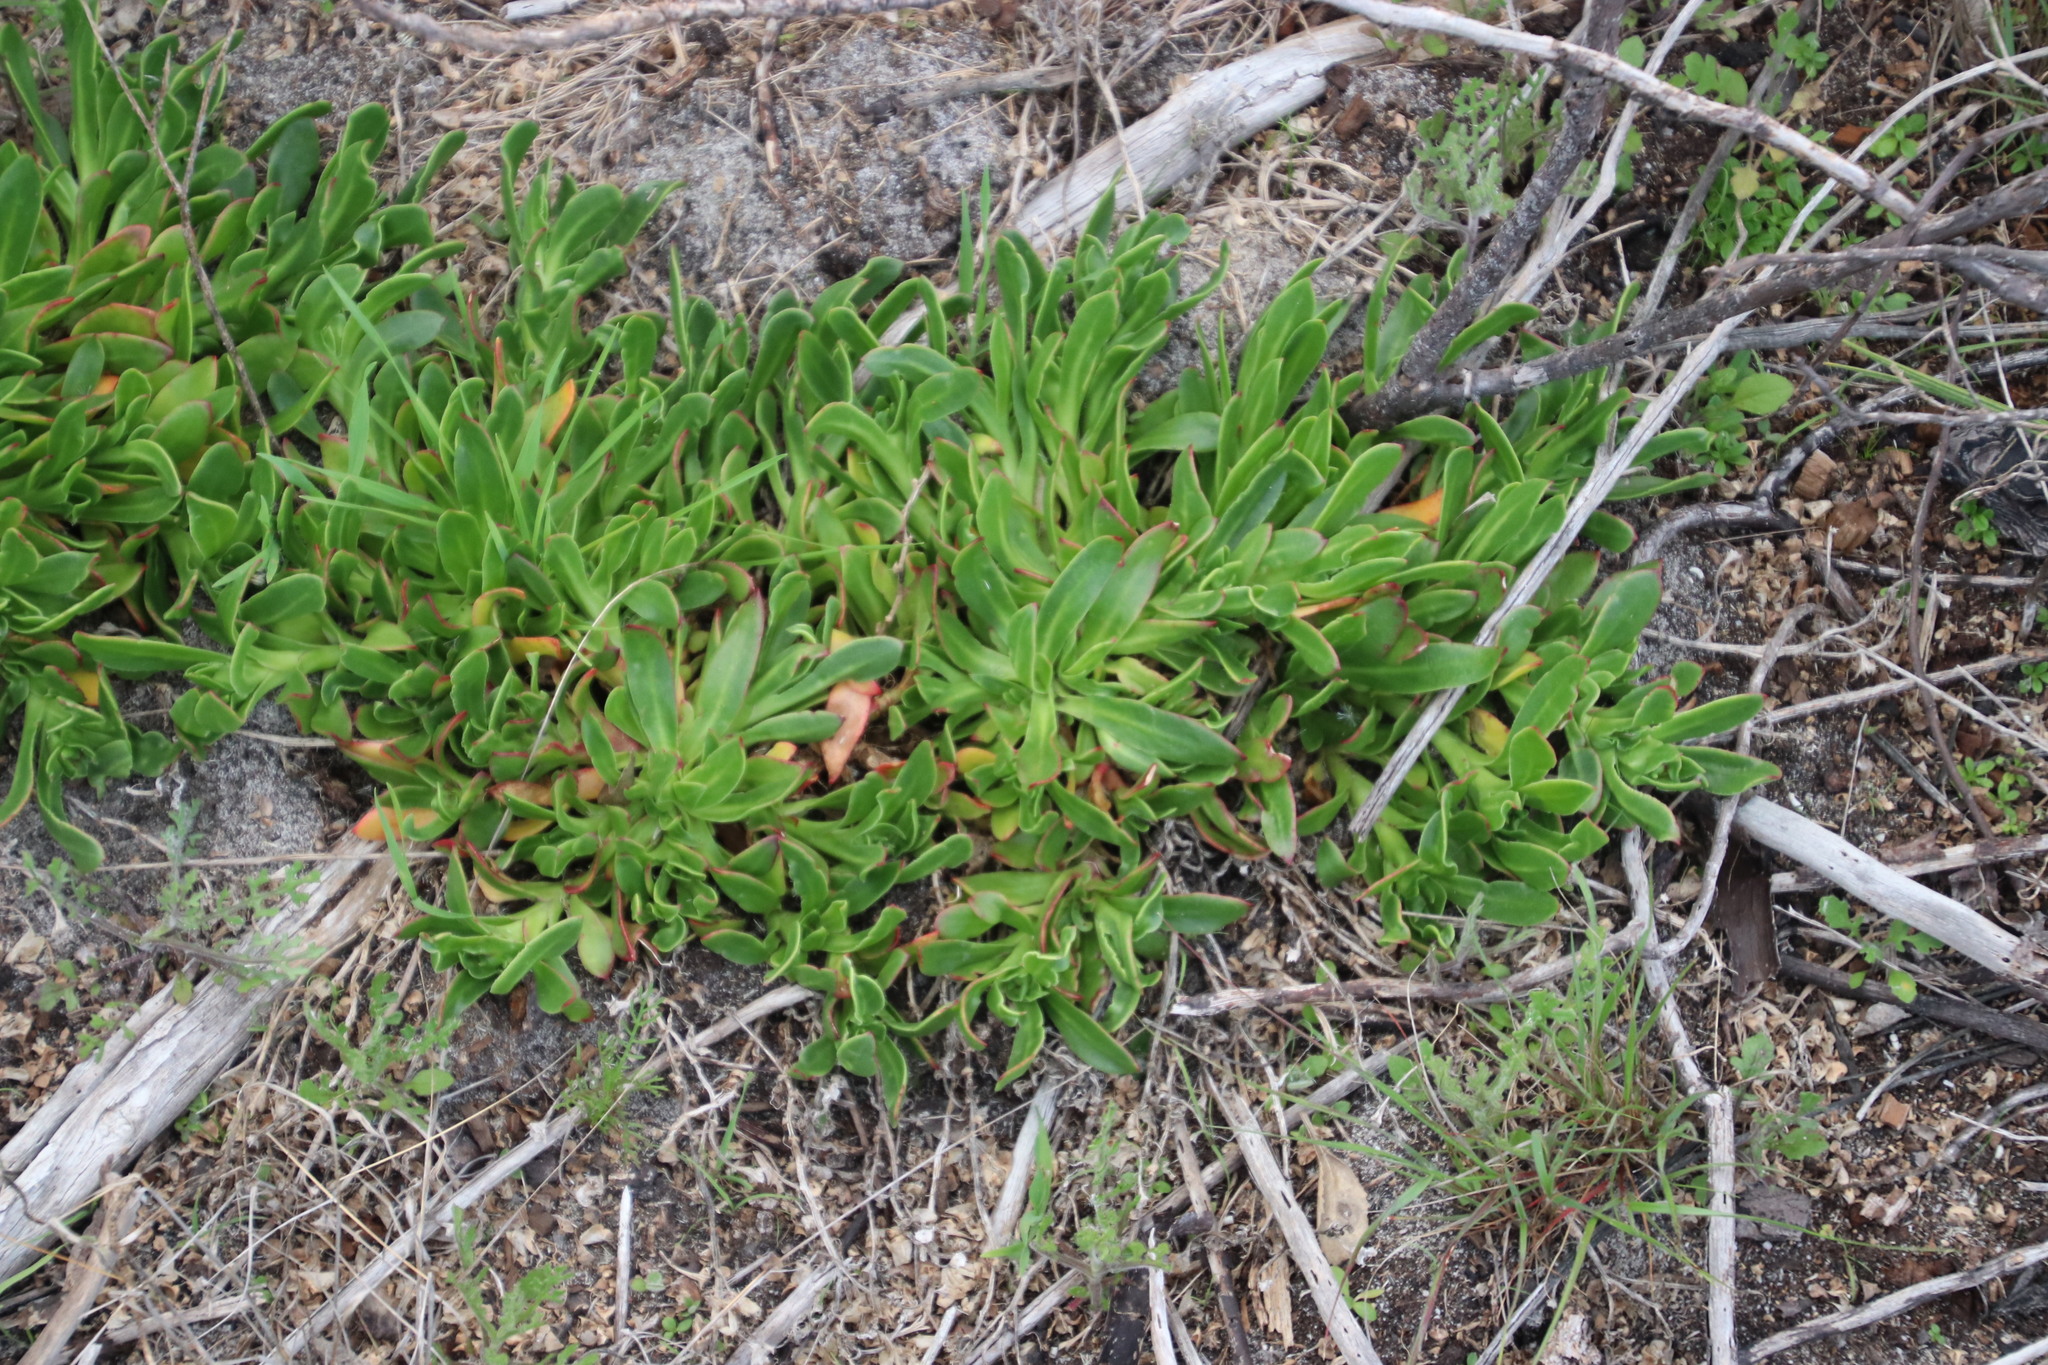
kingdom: Plantae
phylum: Tracheophyta
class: Magnoliopsida
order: Caryophyllales
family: Aizoaceae
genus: Skiatophytum
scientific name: Skiatophytum tripolium
